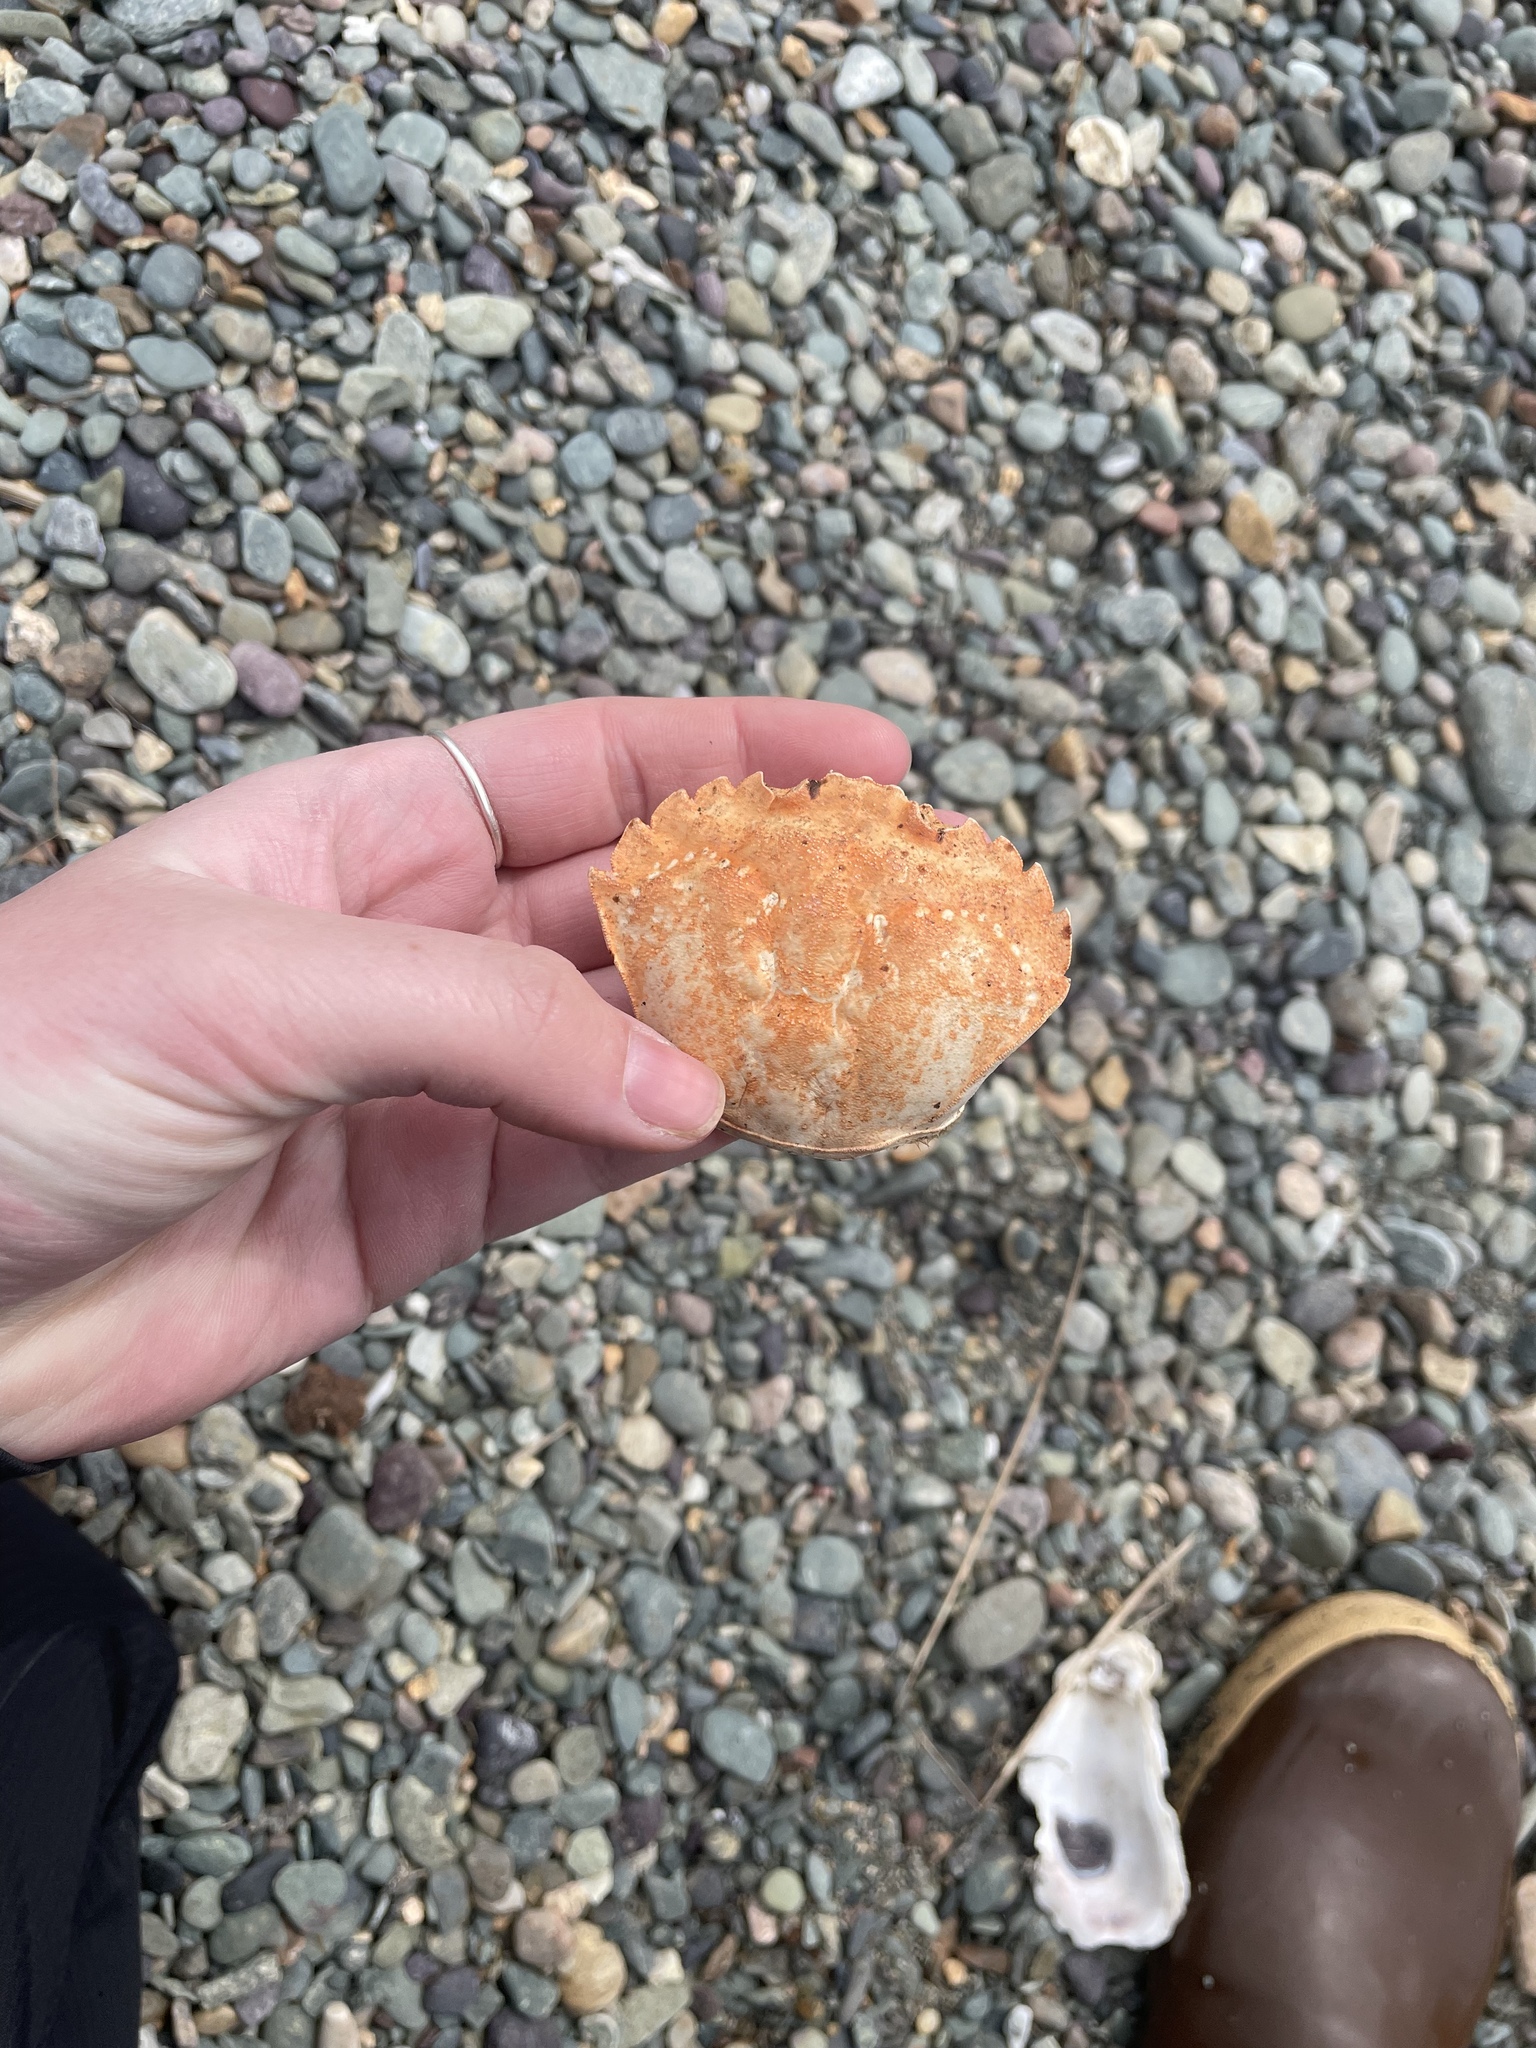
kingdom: Animalia
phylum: Arthropoda
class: Malacostraca
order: Decapoda
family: Carcinidae
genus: Carcinus
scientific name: Carcinus maenas
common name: European green crab
